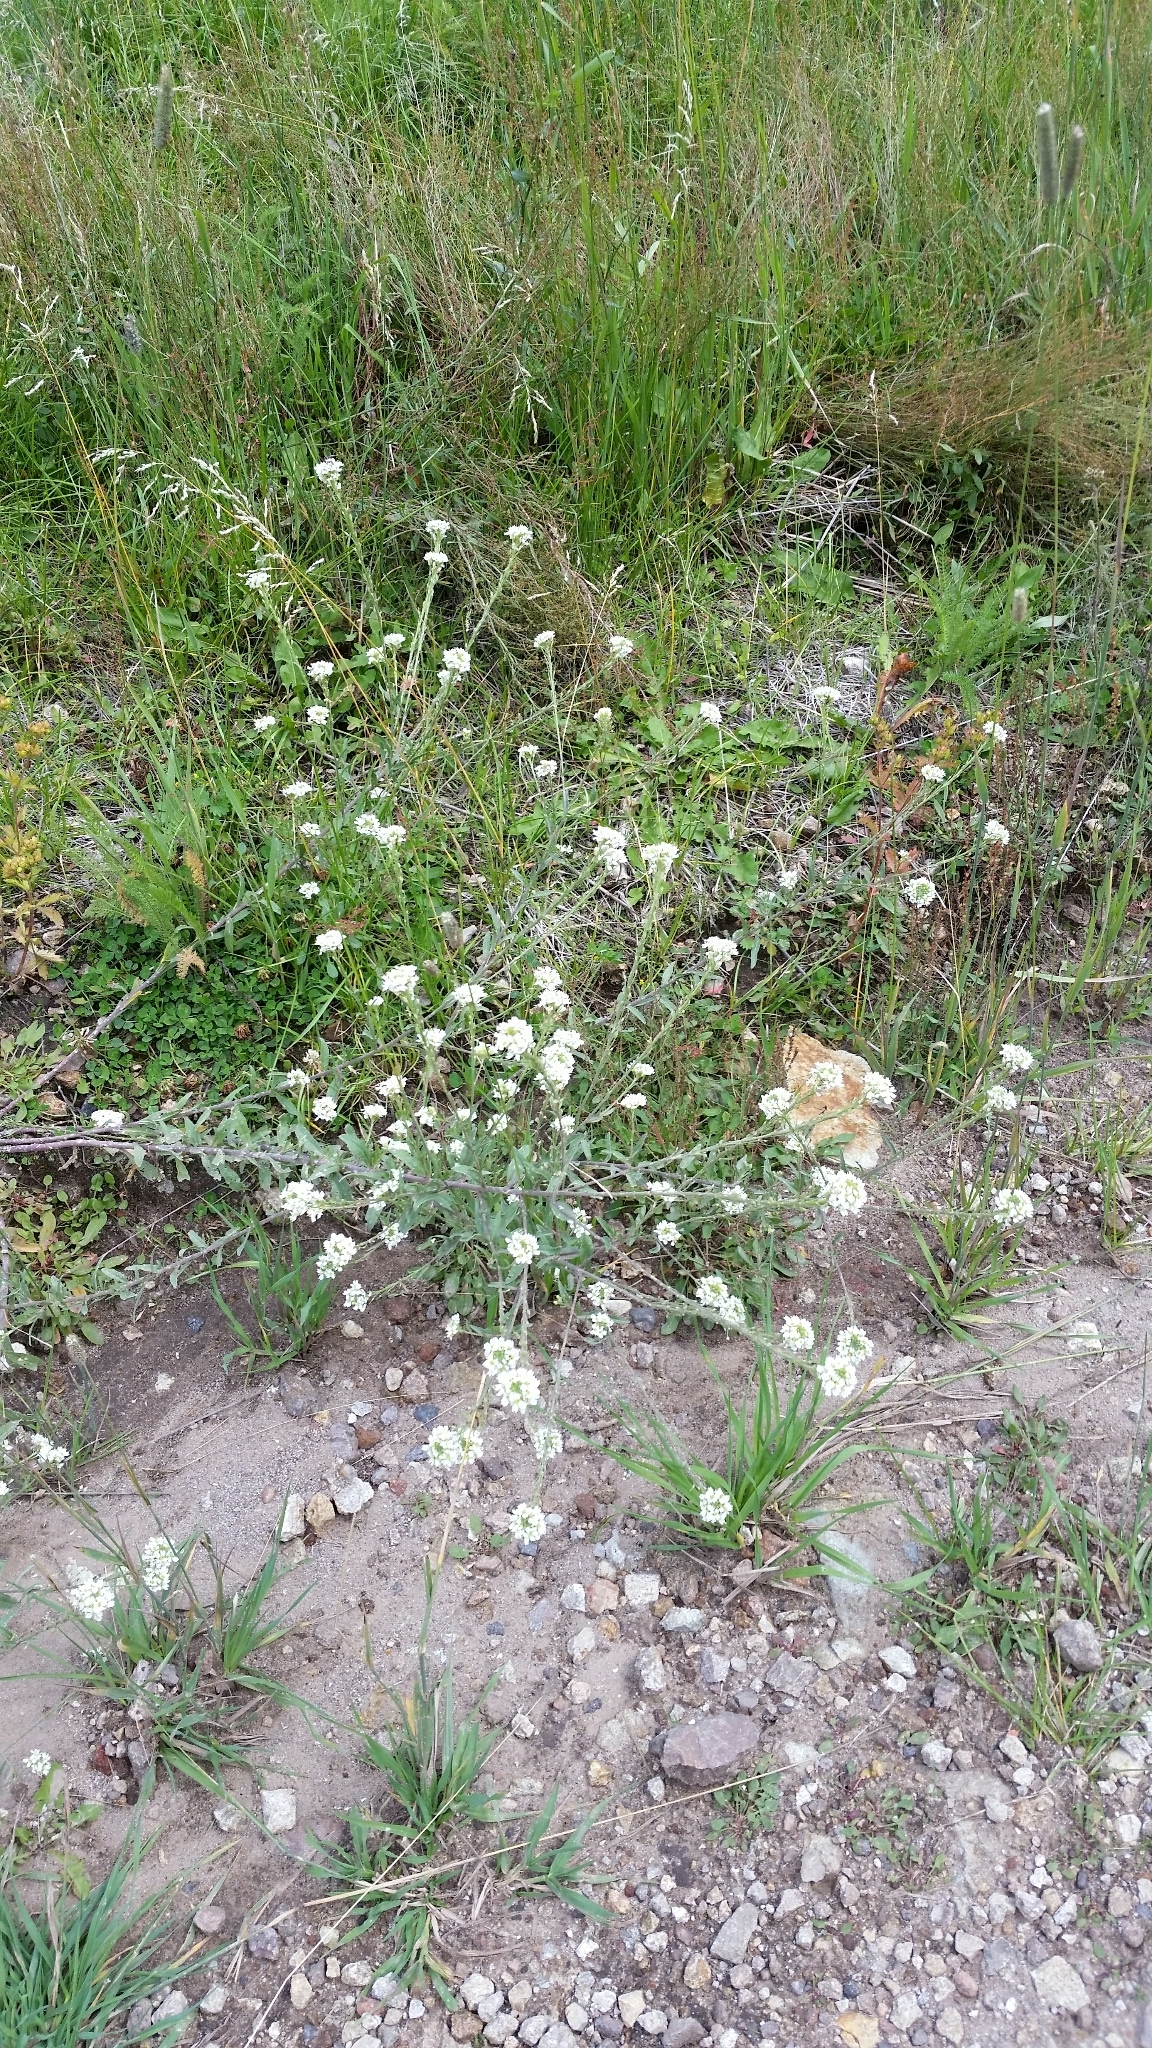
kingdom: Plantae
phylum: Tracheophyta
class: Magnoliopsida
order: Brassicales
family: Brassicaceae
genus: Berteroa
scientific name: Berteroa incana
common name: Hoary alison
